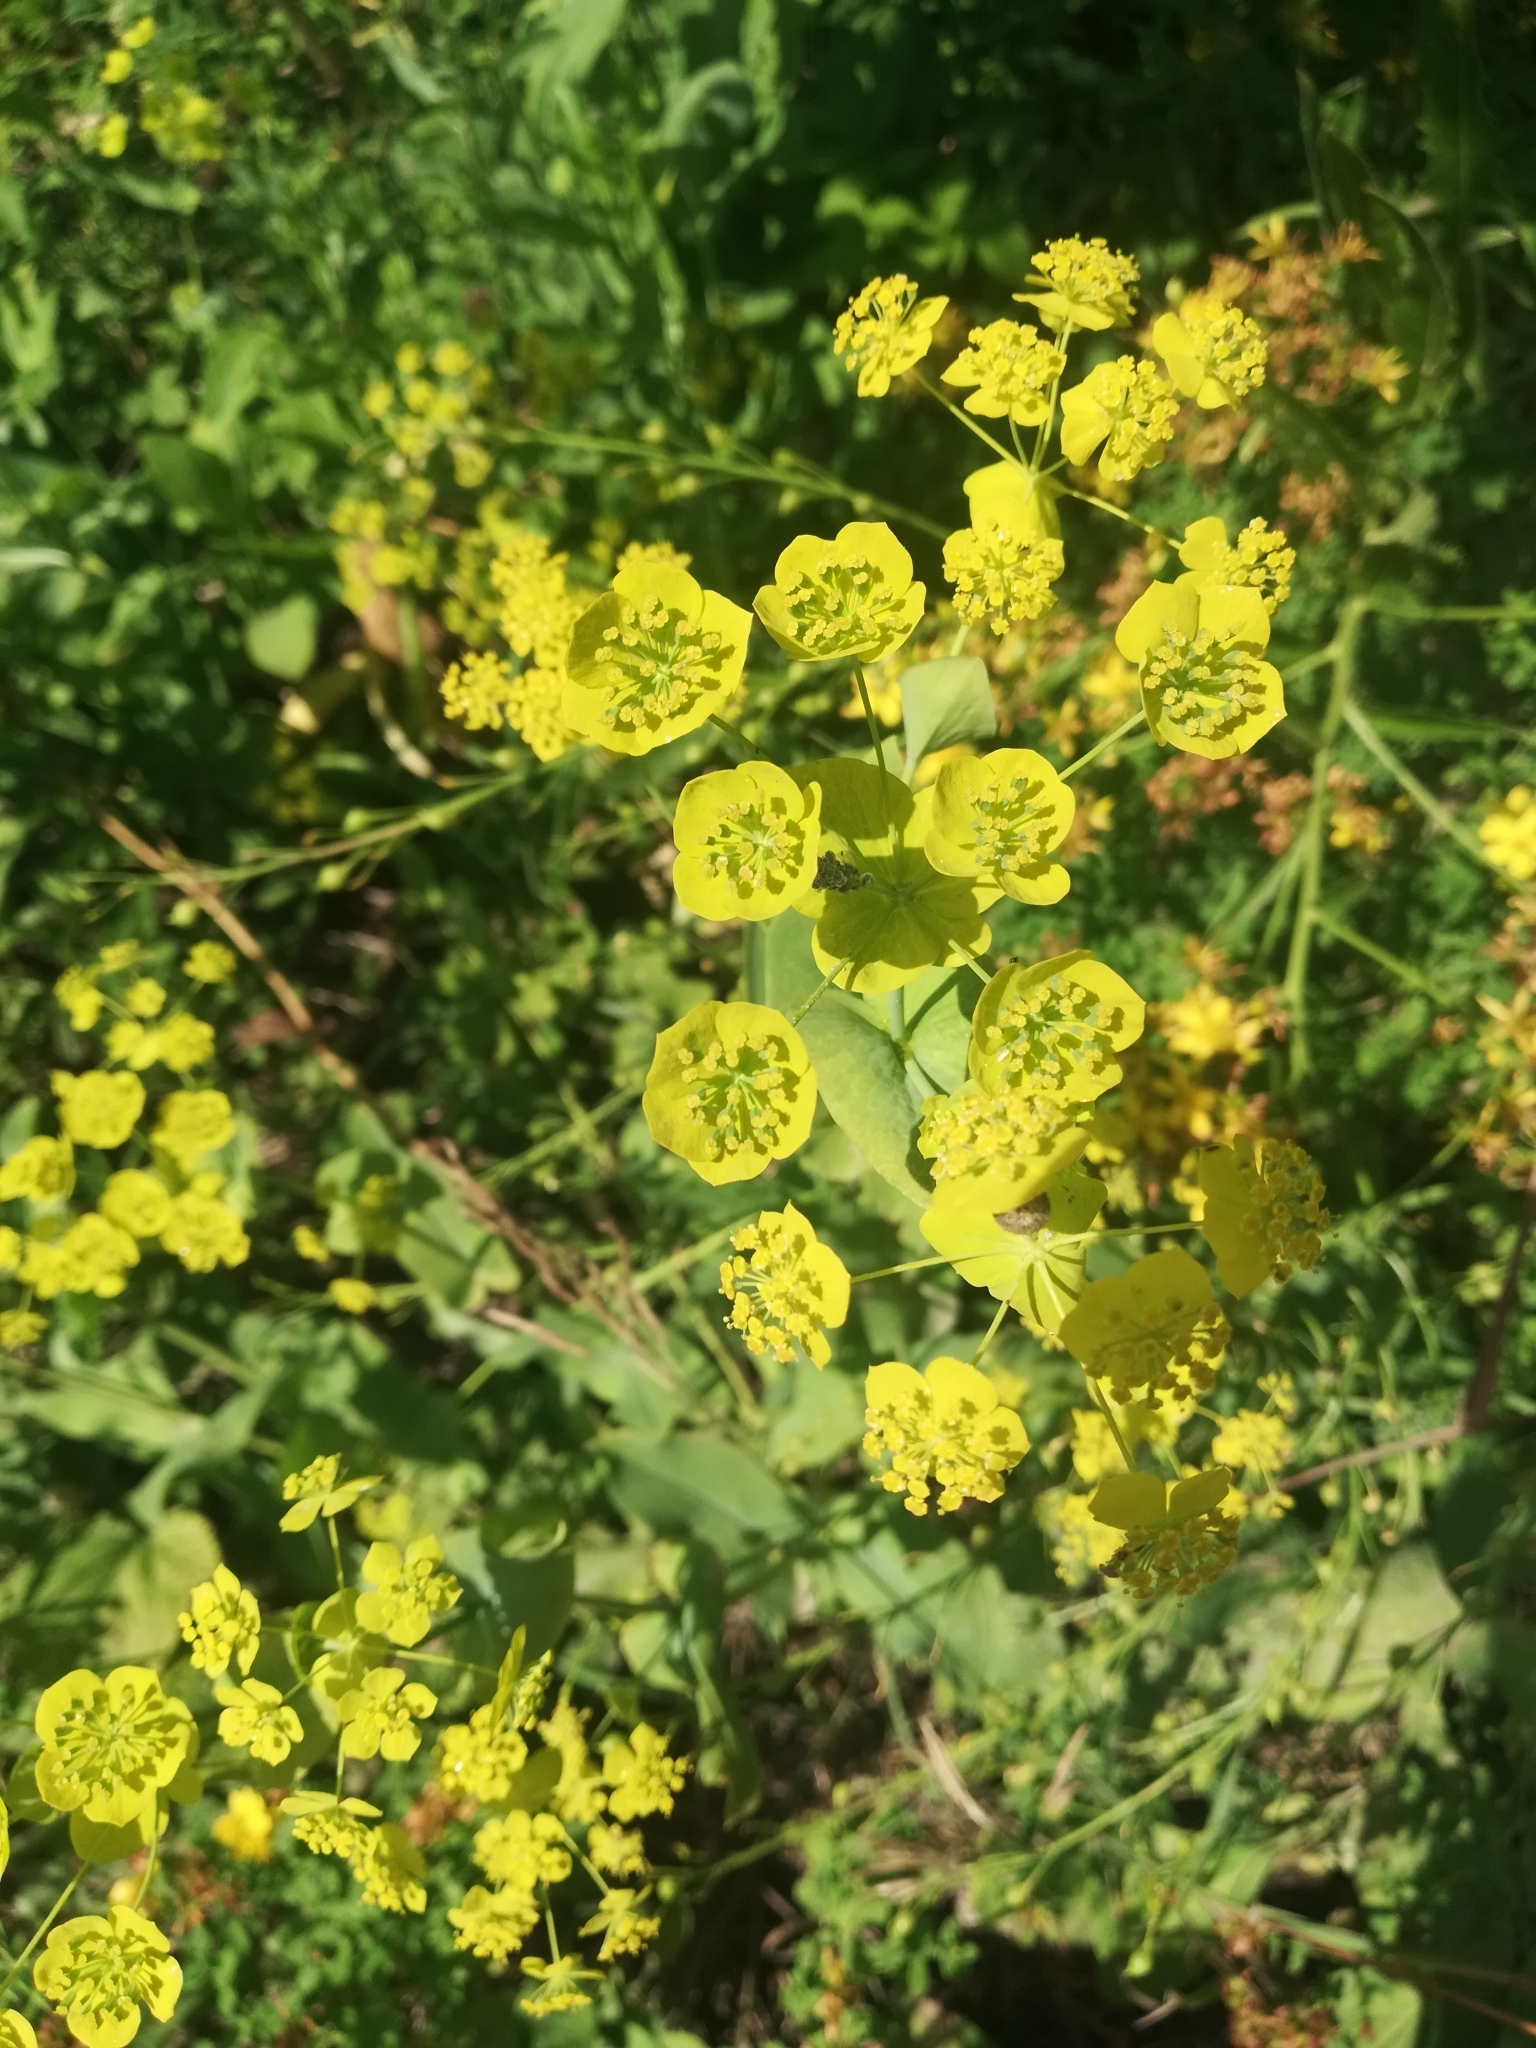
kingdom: Plantae
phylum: Tracheophyta
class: Magnoliopsida
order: Apiales
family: Apiaceae
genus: Bupleurum
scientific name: Bupleurum aureum
